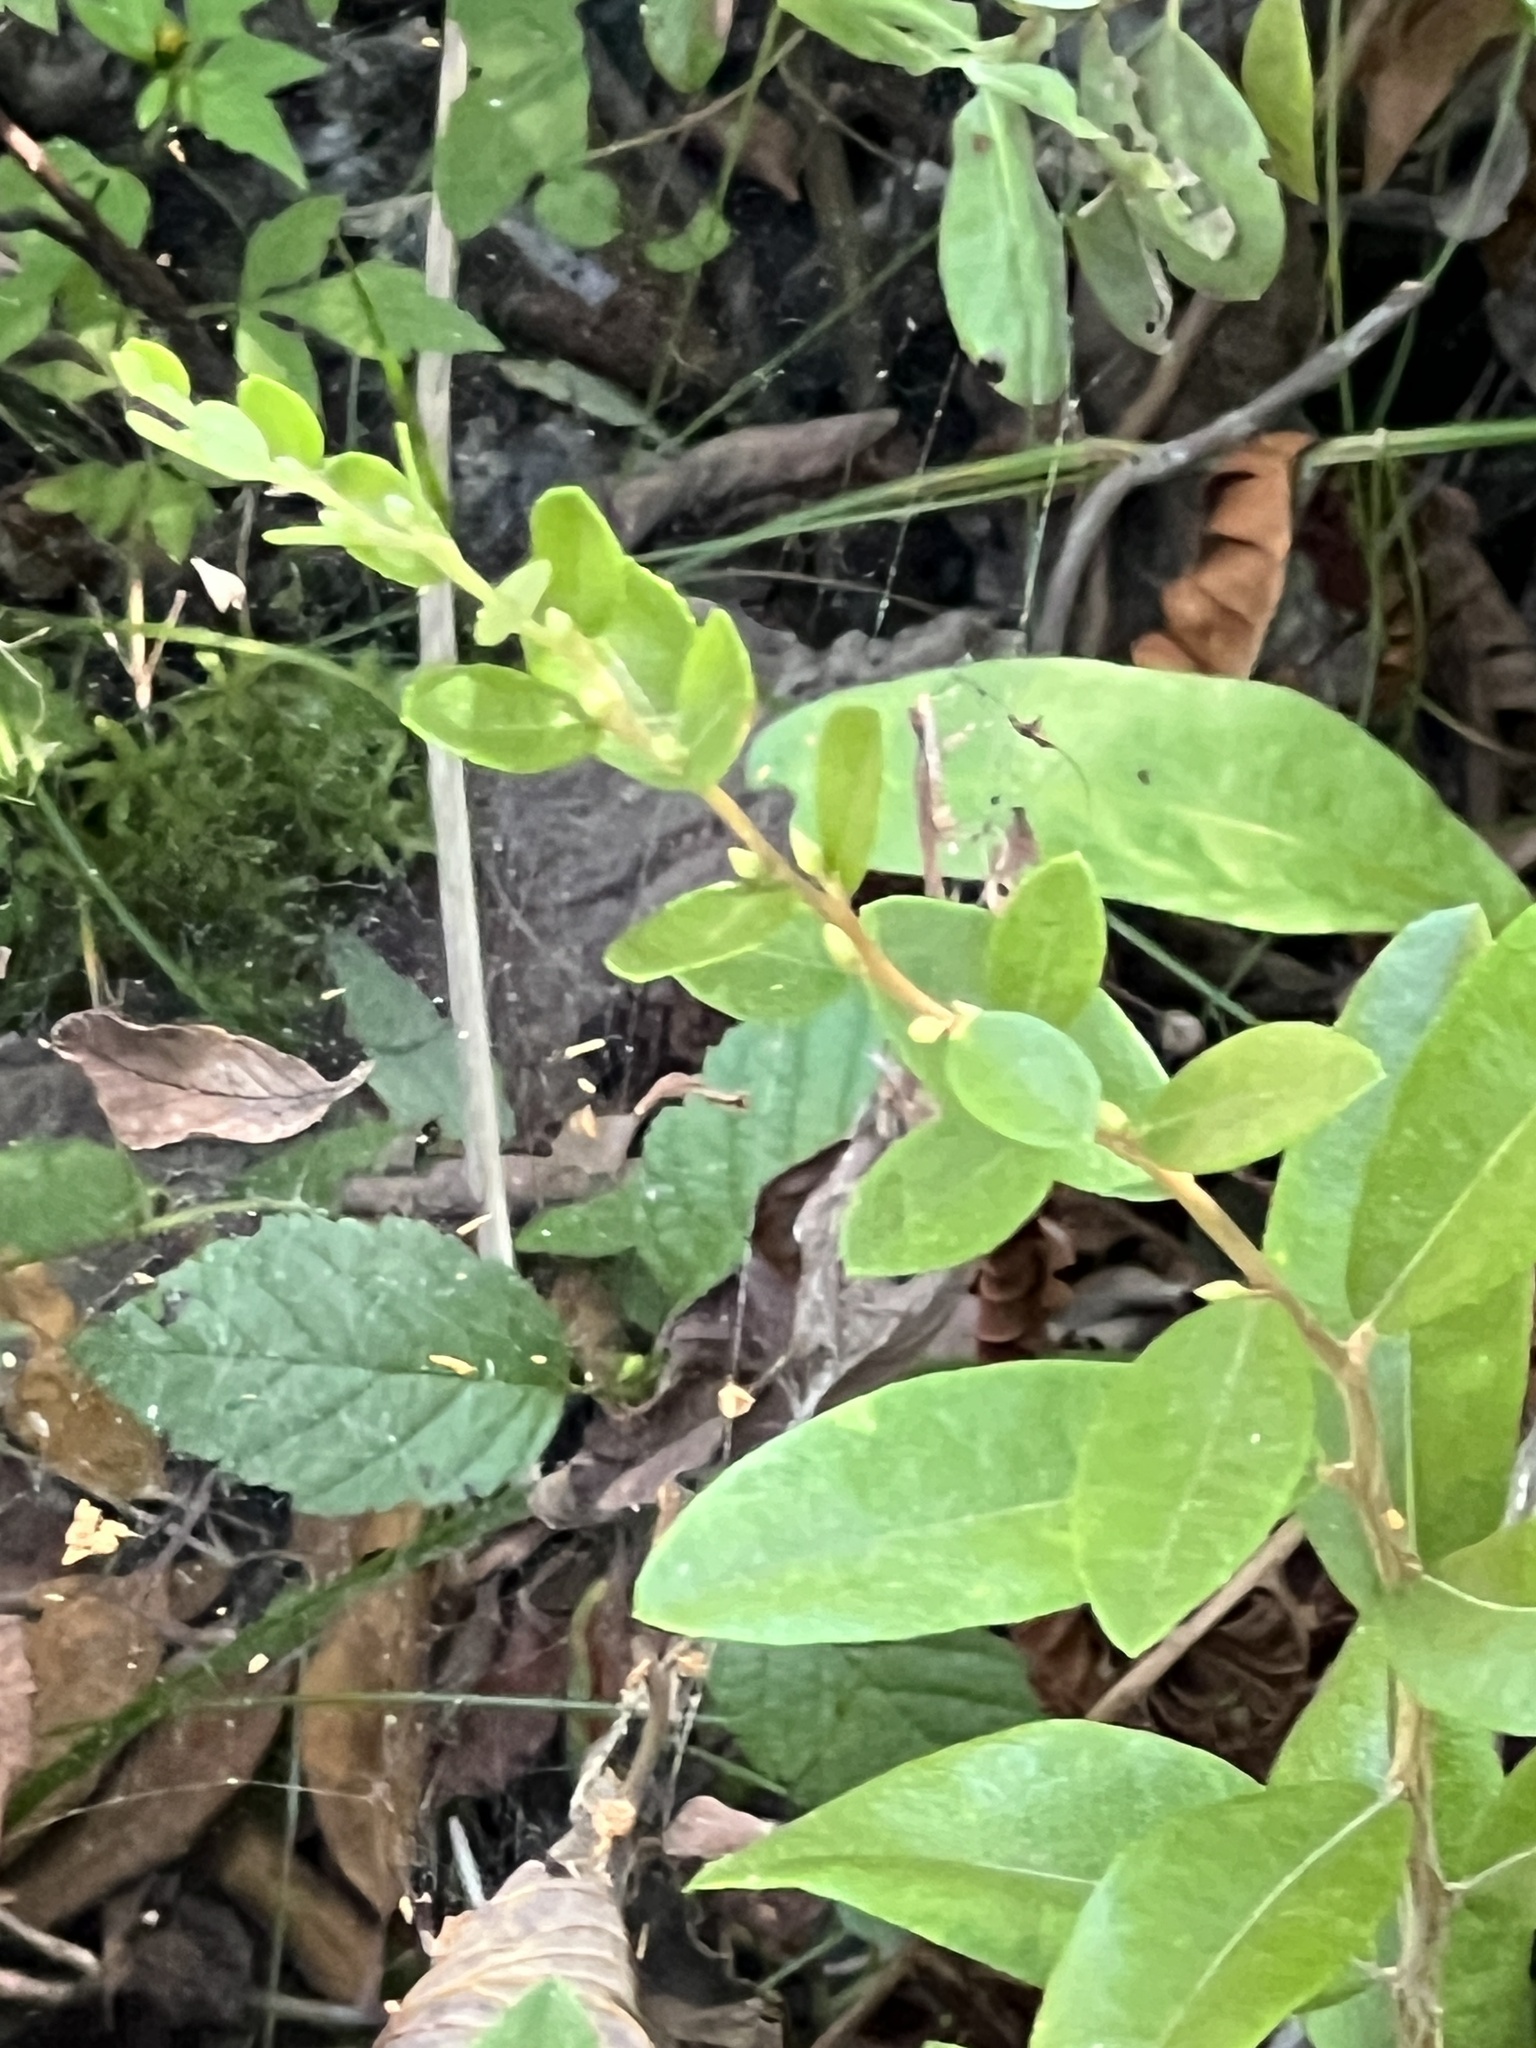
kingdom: Plantae
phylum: Tracheophyta
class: Magnoliopsida
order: Ericales
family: Ericaceae
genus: Chamaedaphne
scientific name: Chamaedaphne calyculata
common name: Leatherleaf
